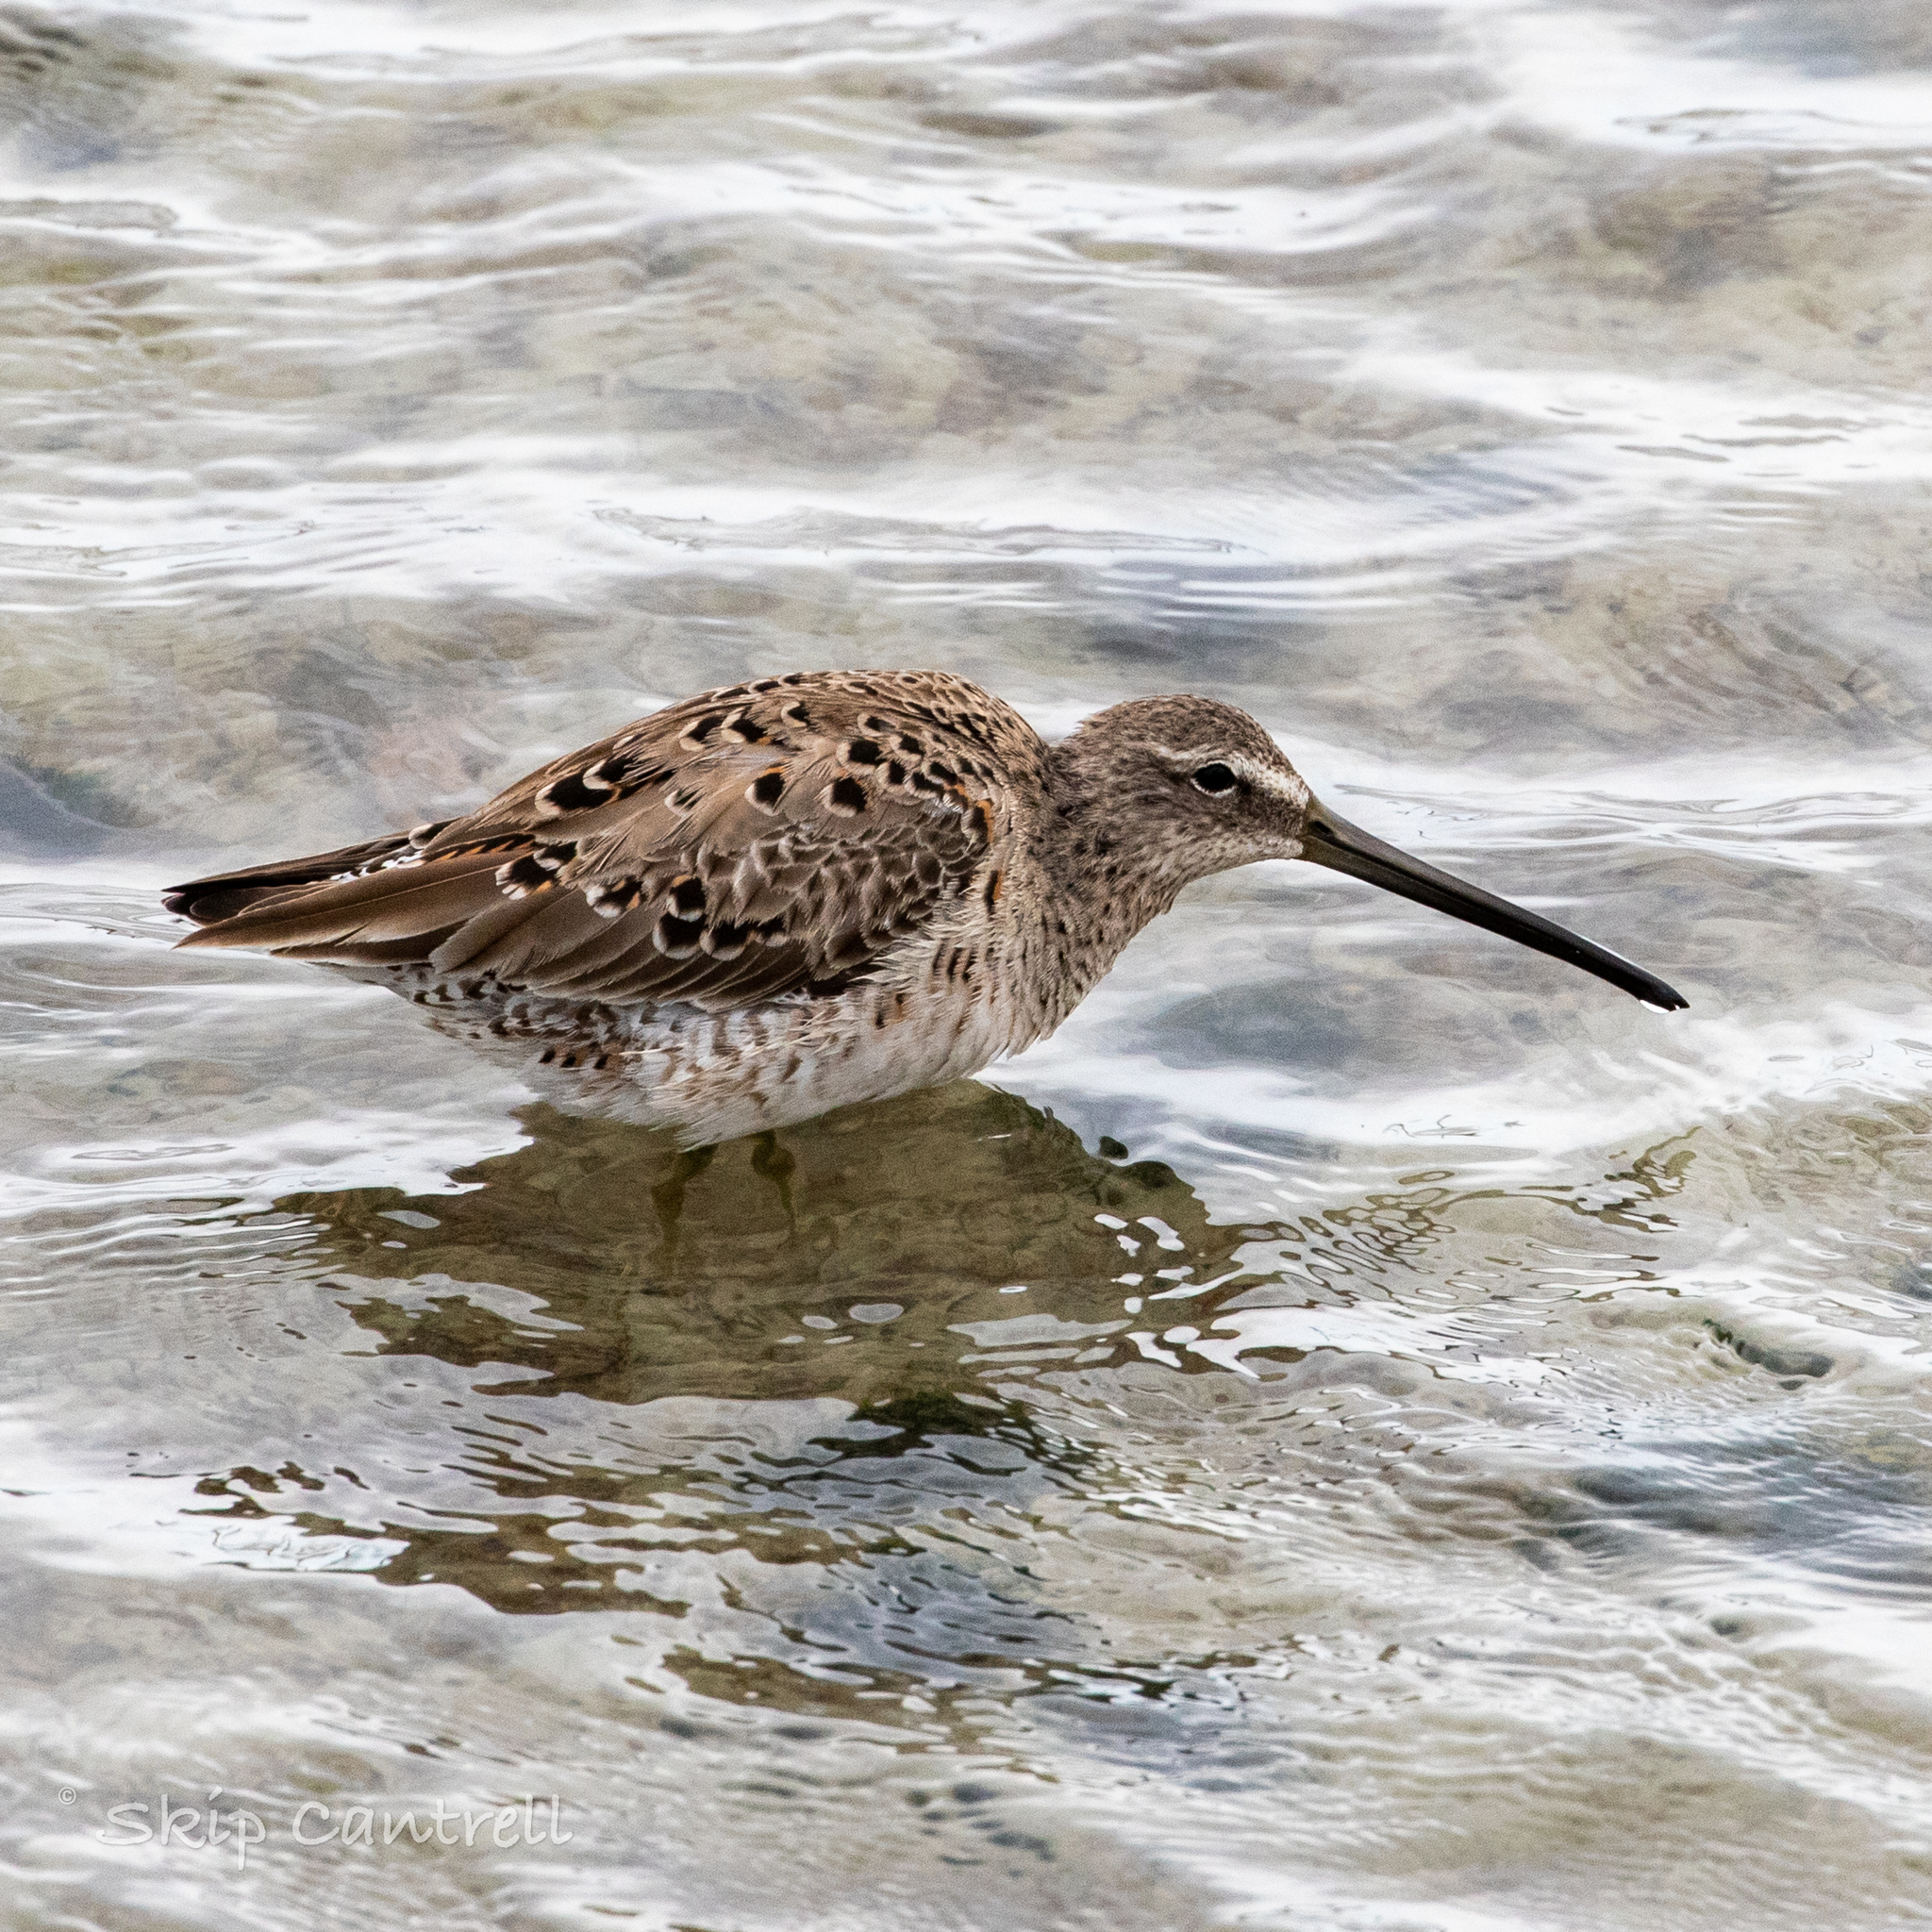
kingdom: Animalia
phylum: Chordata
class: Aves
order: Charadriiformes
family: Scolopacidae
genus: Limnodromus
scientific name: Limnodromus scolopaceus
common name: Long-billed dowitcher
